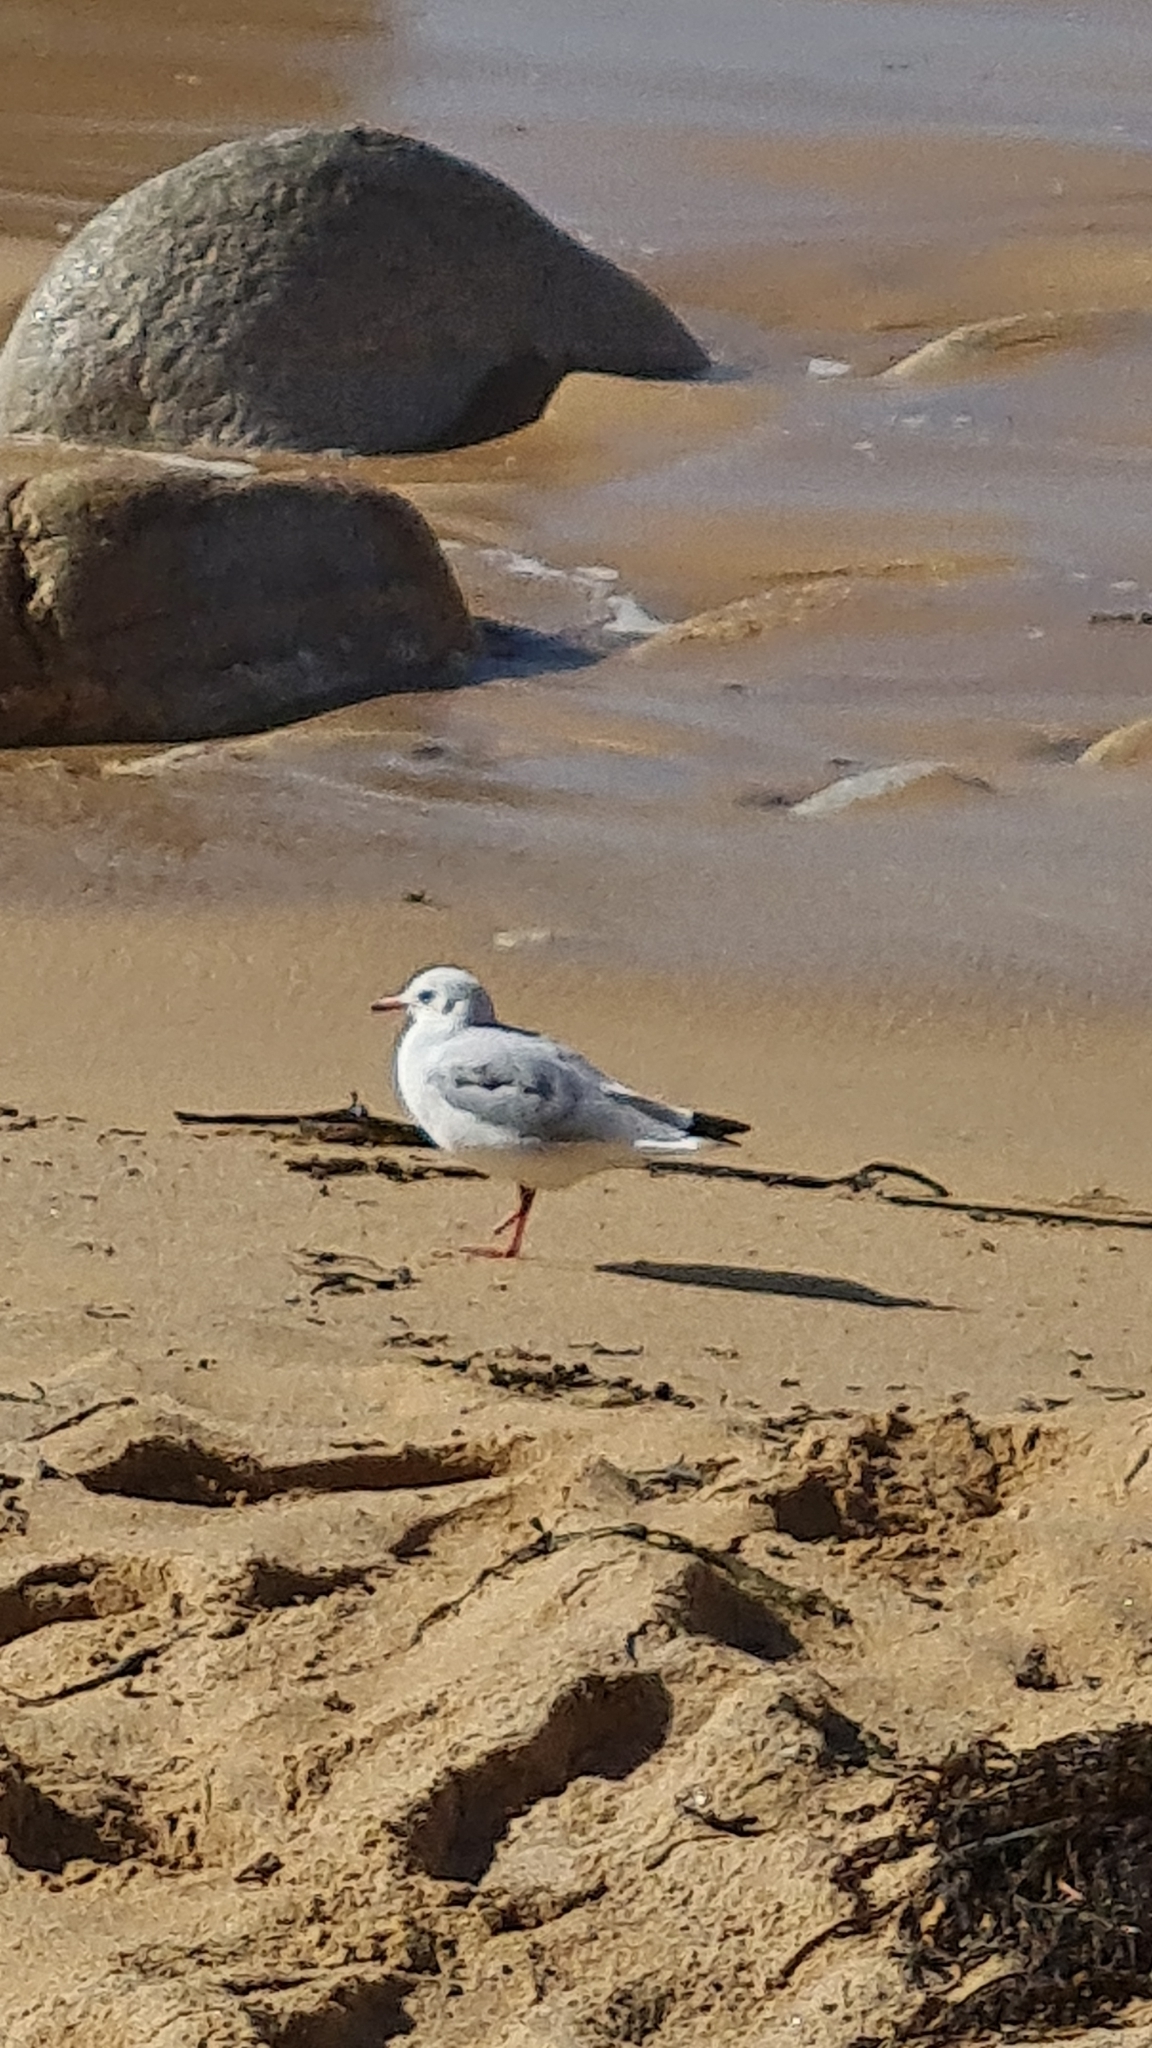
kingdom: Animalia
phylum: Chordata
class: Aves
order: Charadriiformes
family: Laridae
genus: Chroicocephalus
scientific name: Chroicocephalus ridibundus
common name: Black-headed gull
